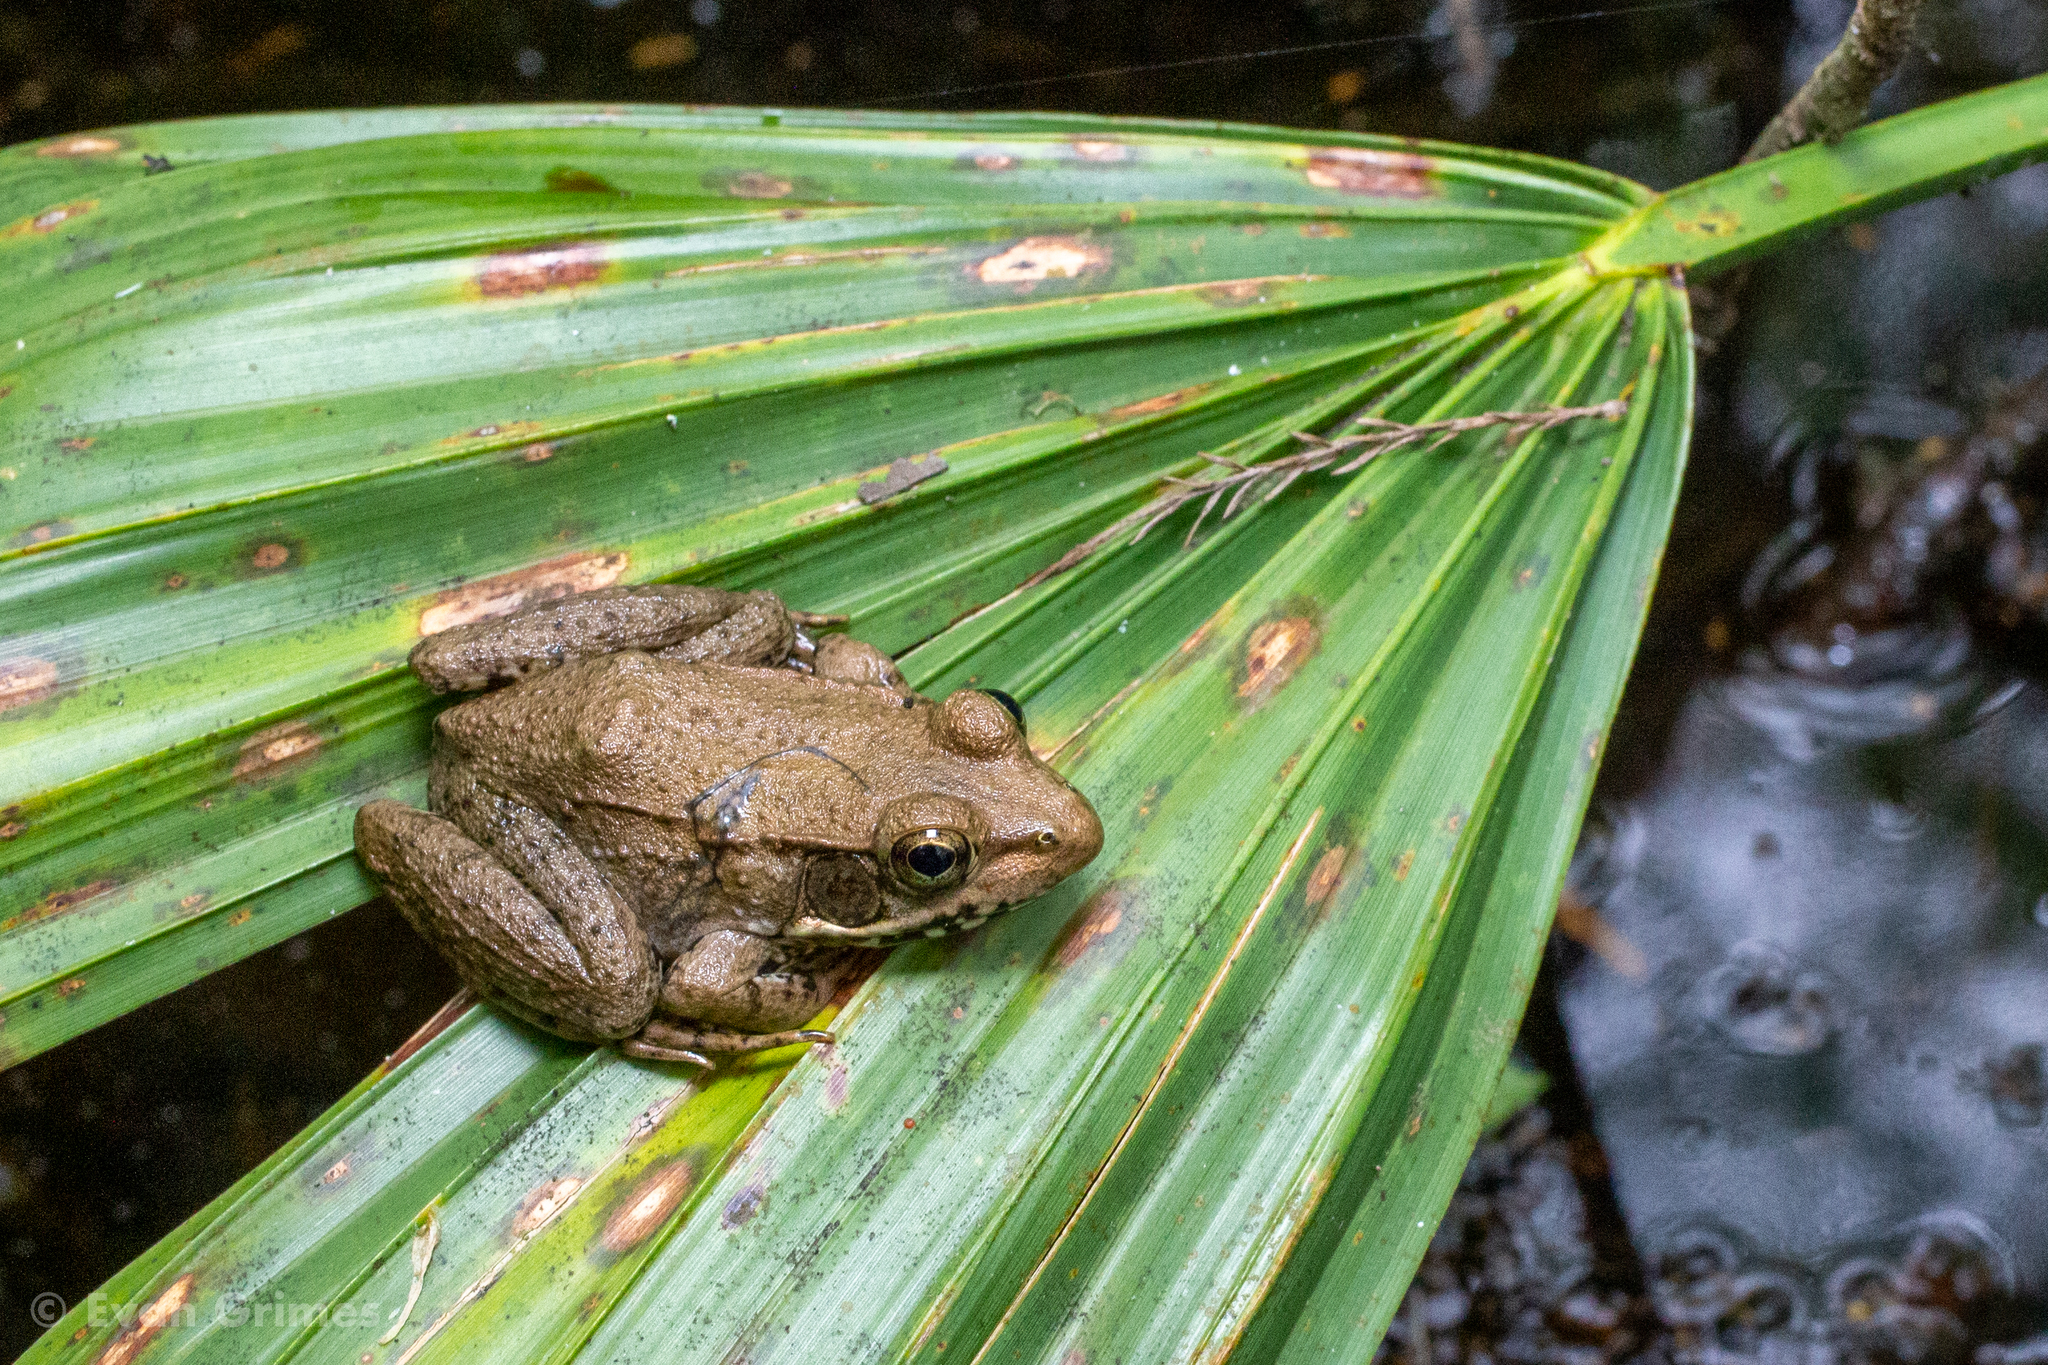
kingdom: Animalia
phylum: Chordata
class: Amphibia
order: Anura
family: Ranidae
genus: Lithobates
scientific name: Lithobates clamitans
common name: Green frog
